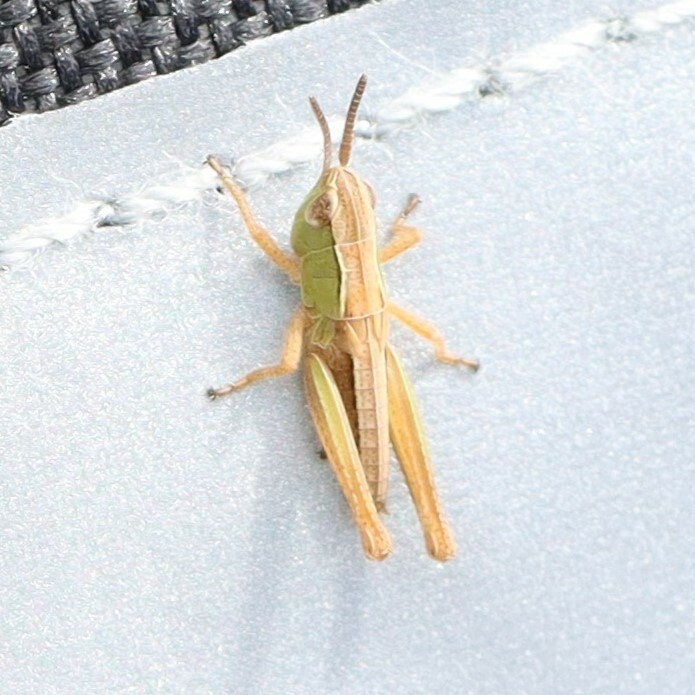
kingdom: Animalia
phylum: Arthropoda
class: Insecta
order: Orthoptera
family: Acrididae
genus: Pseudochorthippus
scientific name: Pseudochorthippus parallelus
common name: Meadow grasshopper
